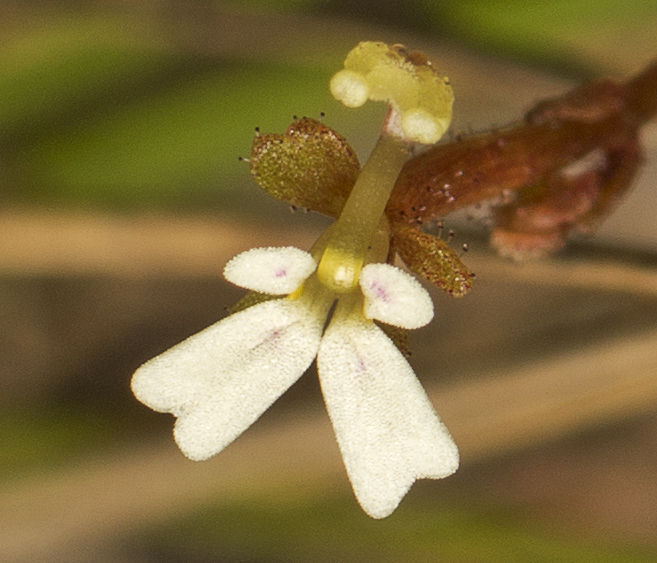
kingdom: Plantae
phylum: Tracheophyta
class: Magnoliopsida
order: Asterales
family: Stylidiaceae
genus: Stylidium
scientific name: Stylidium tenerum
